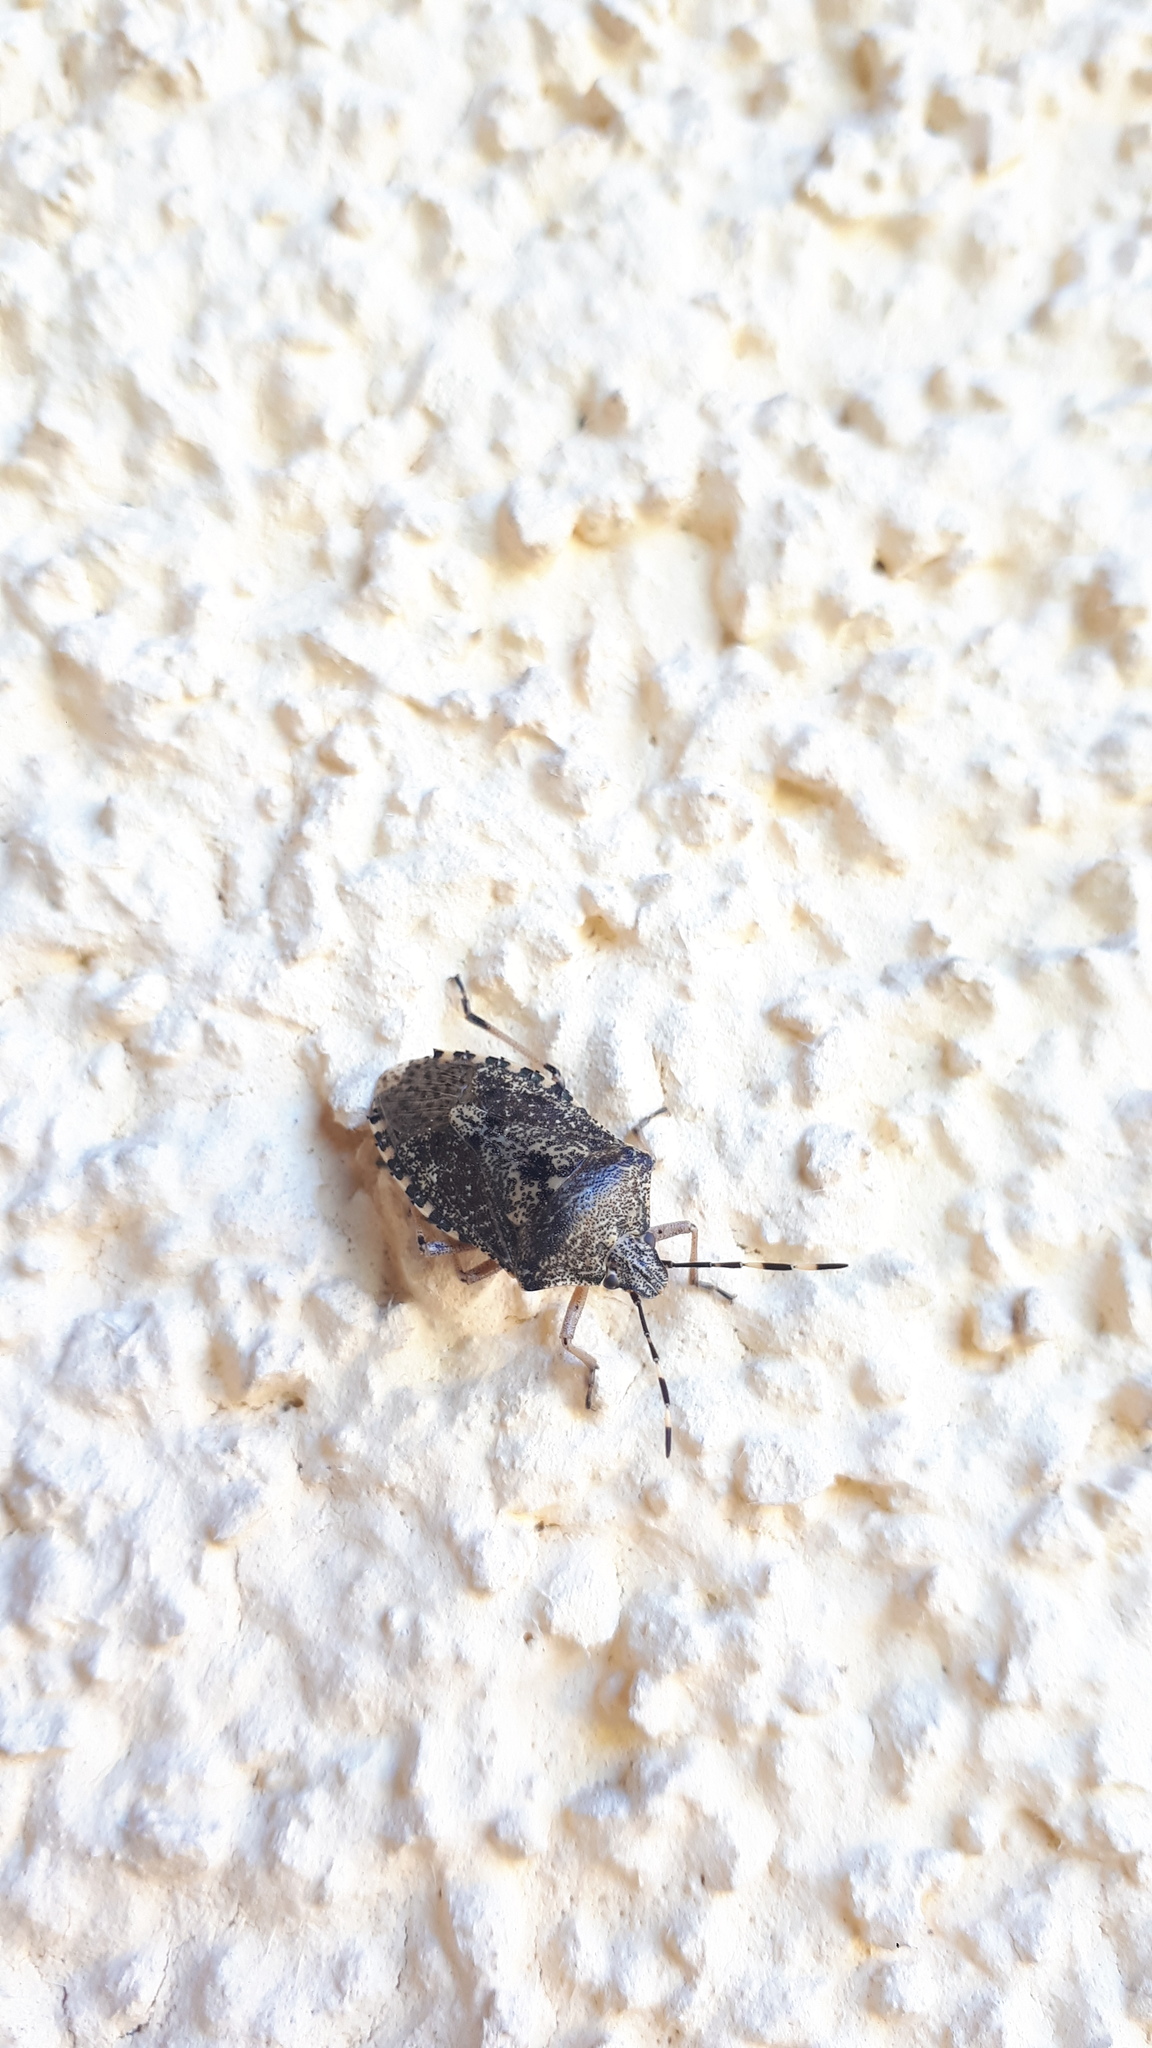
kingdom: Animalia
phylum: Arthropoda
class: Insecta
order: Hemiptera
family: Pentatomidae
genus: Rhaphigaster
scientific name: Rhaphigaster nebulosa
